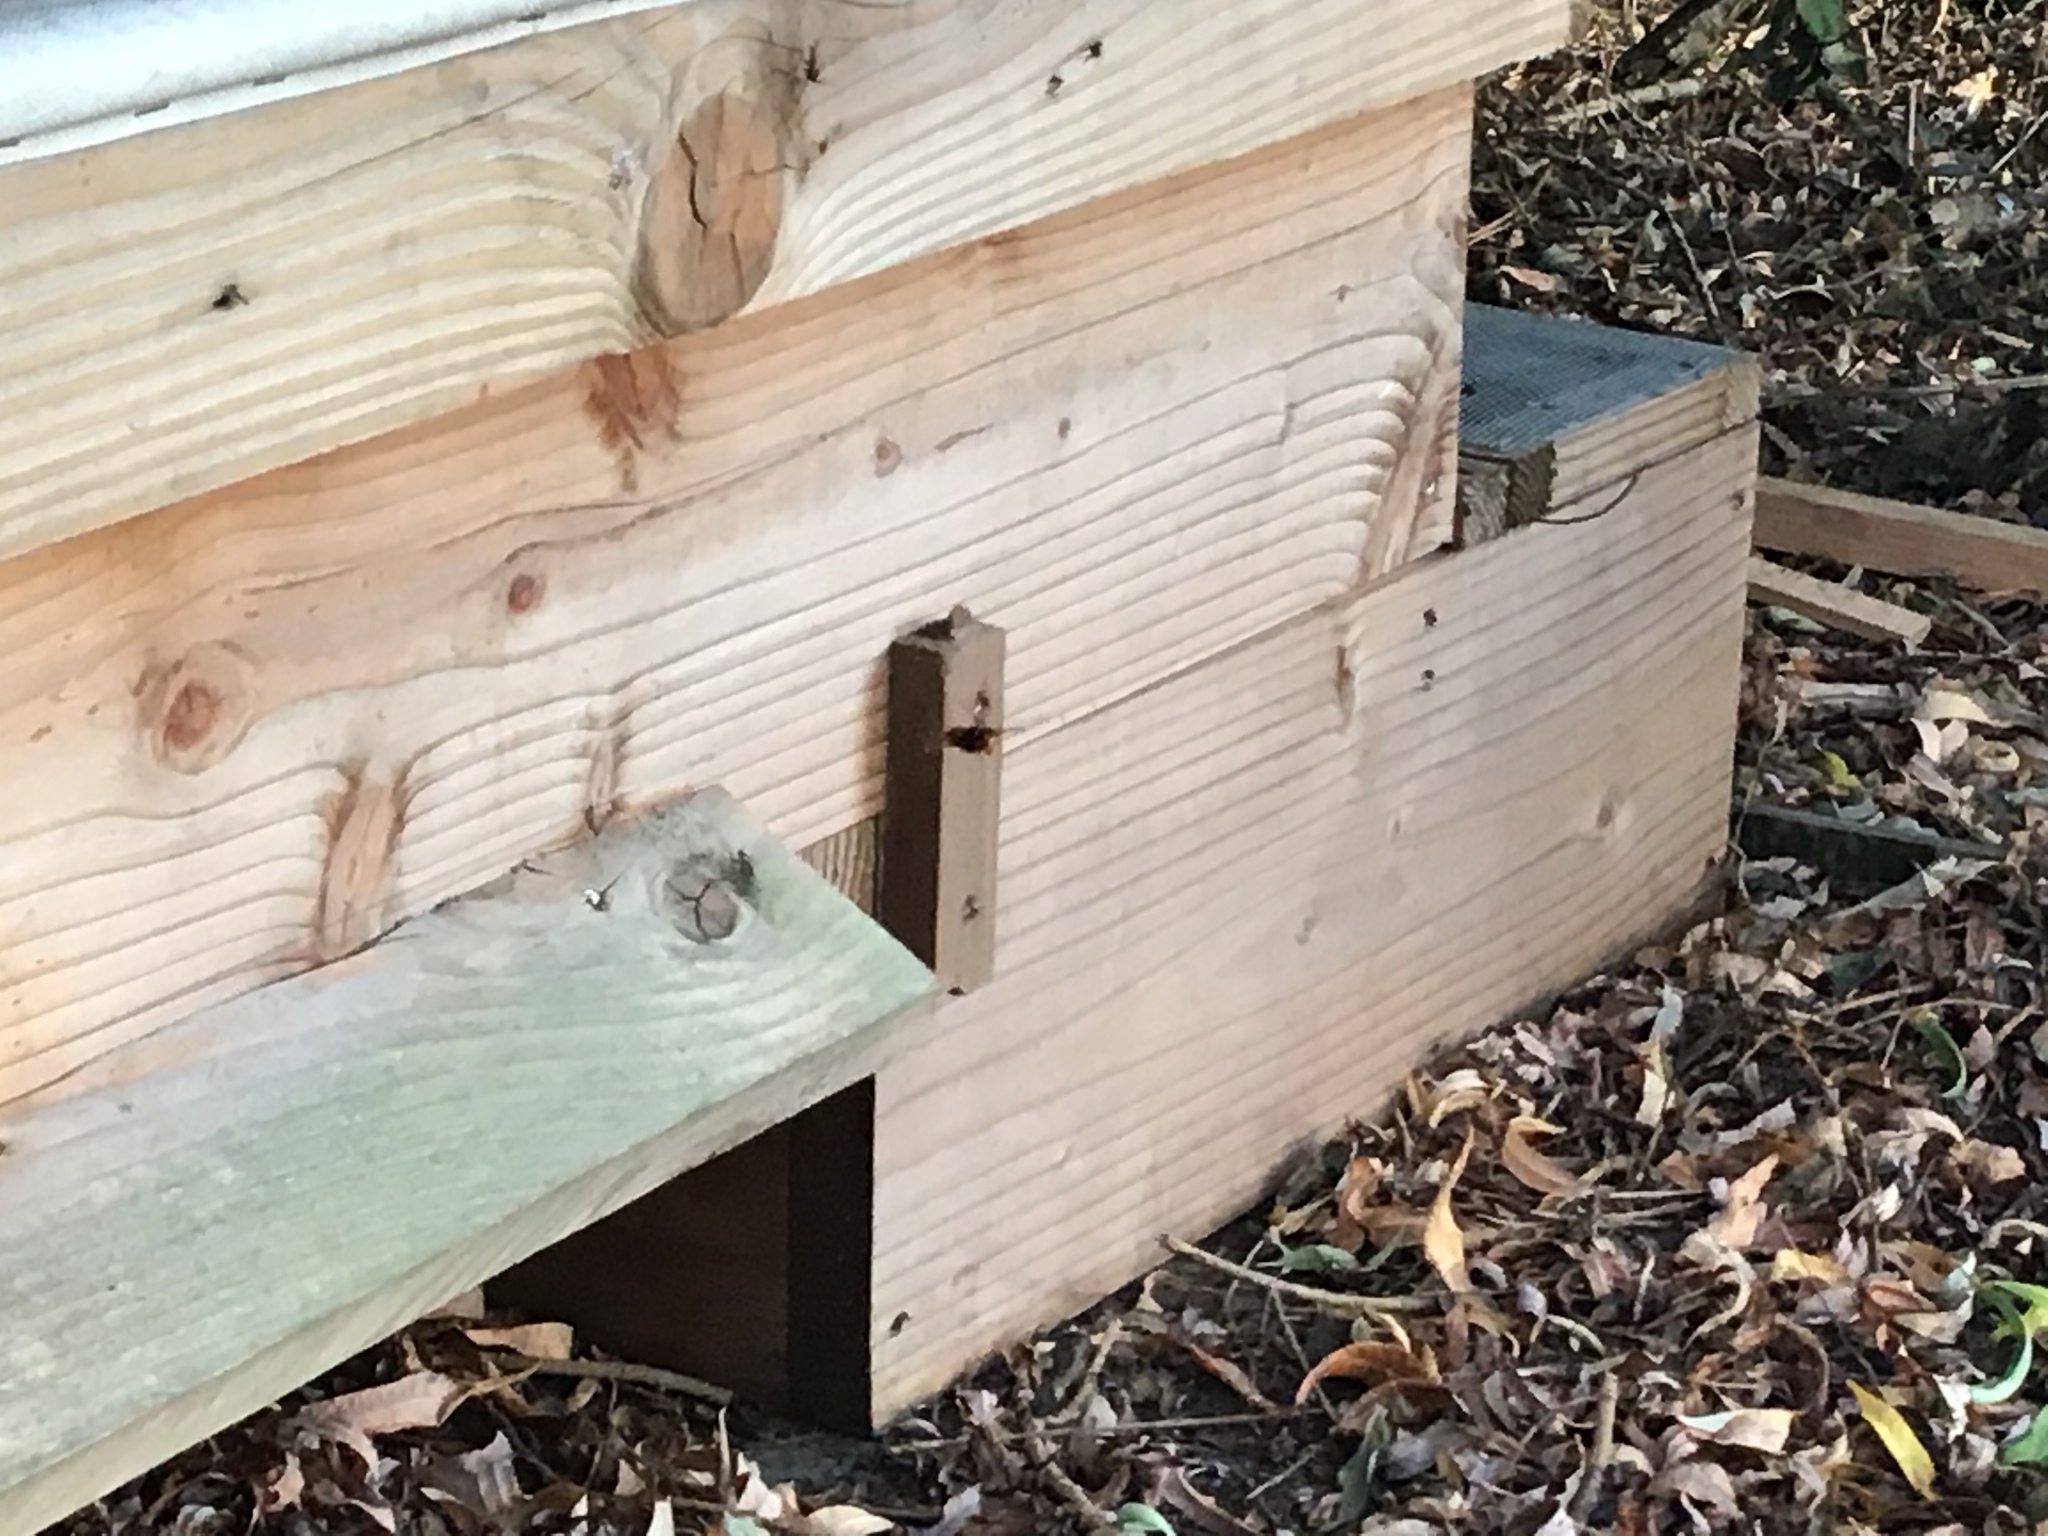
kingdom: Animalia
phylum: Arthropoda
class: Insecta
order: Hymenoptera
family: Vespidae
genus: Vespa
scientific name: Vespa velutina
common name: Asian hornet
